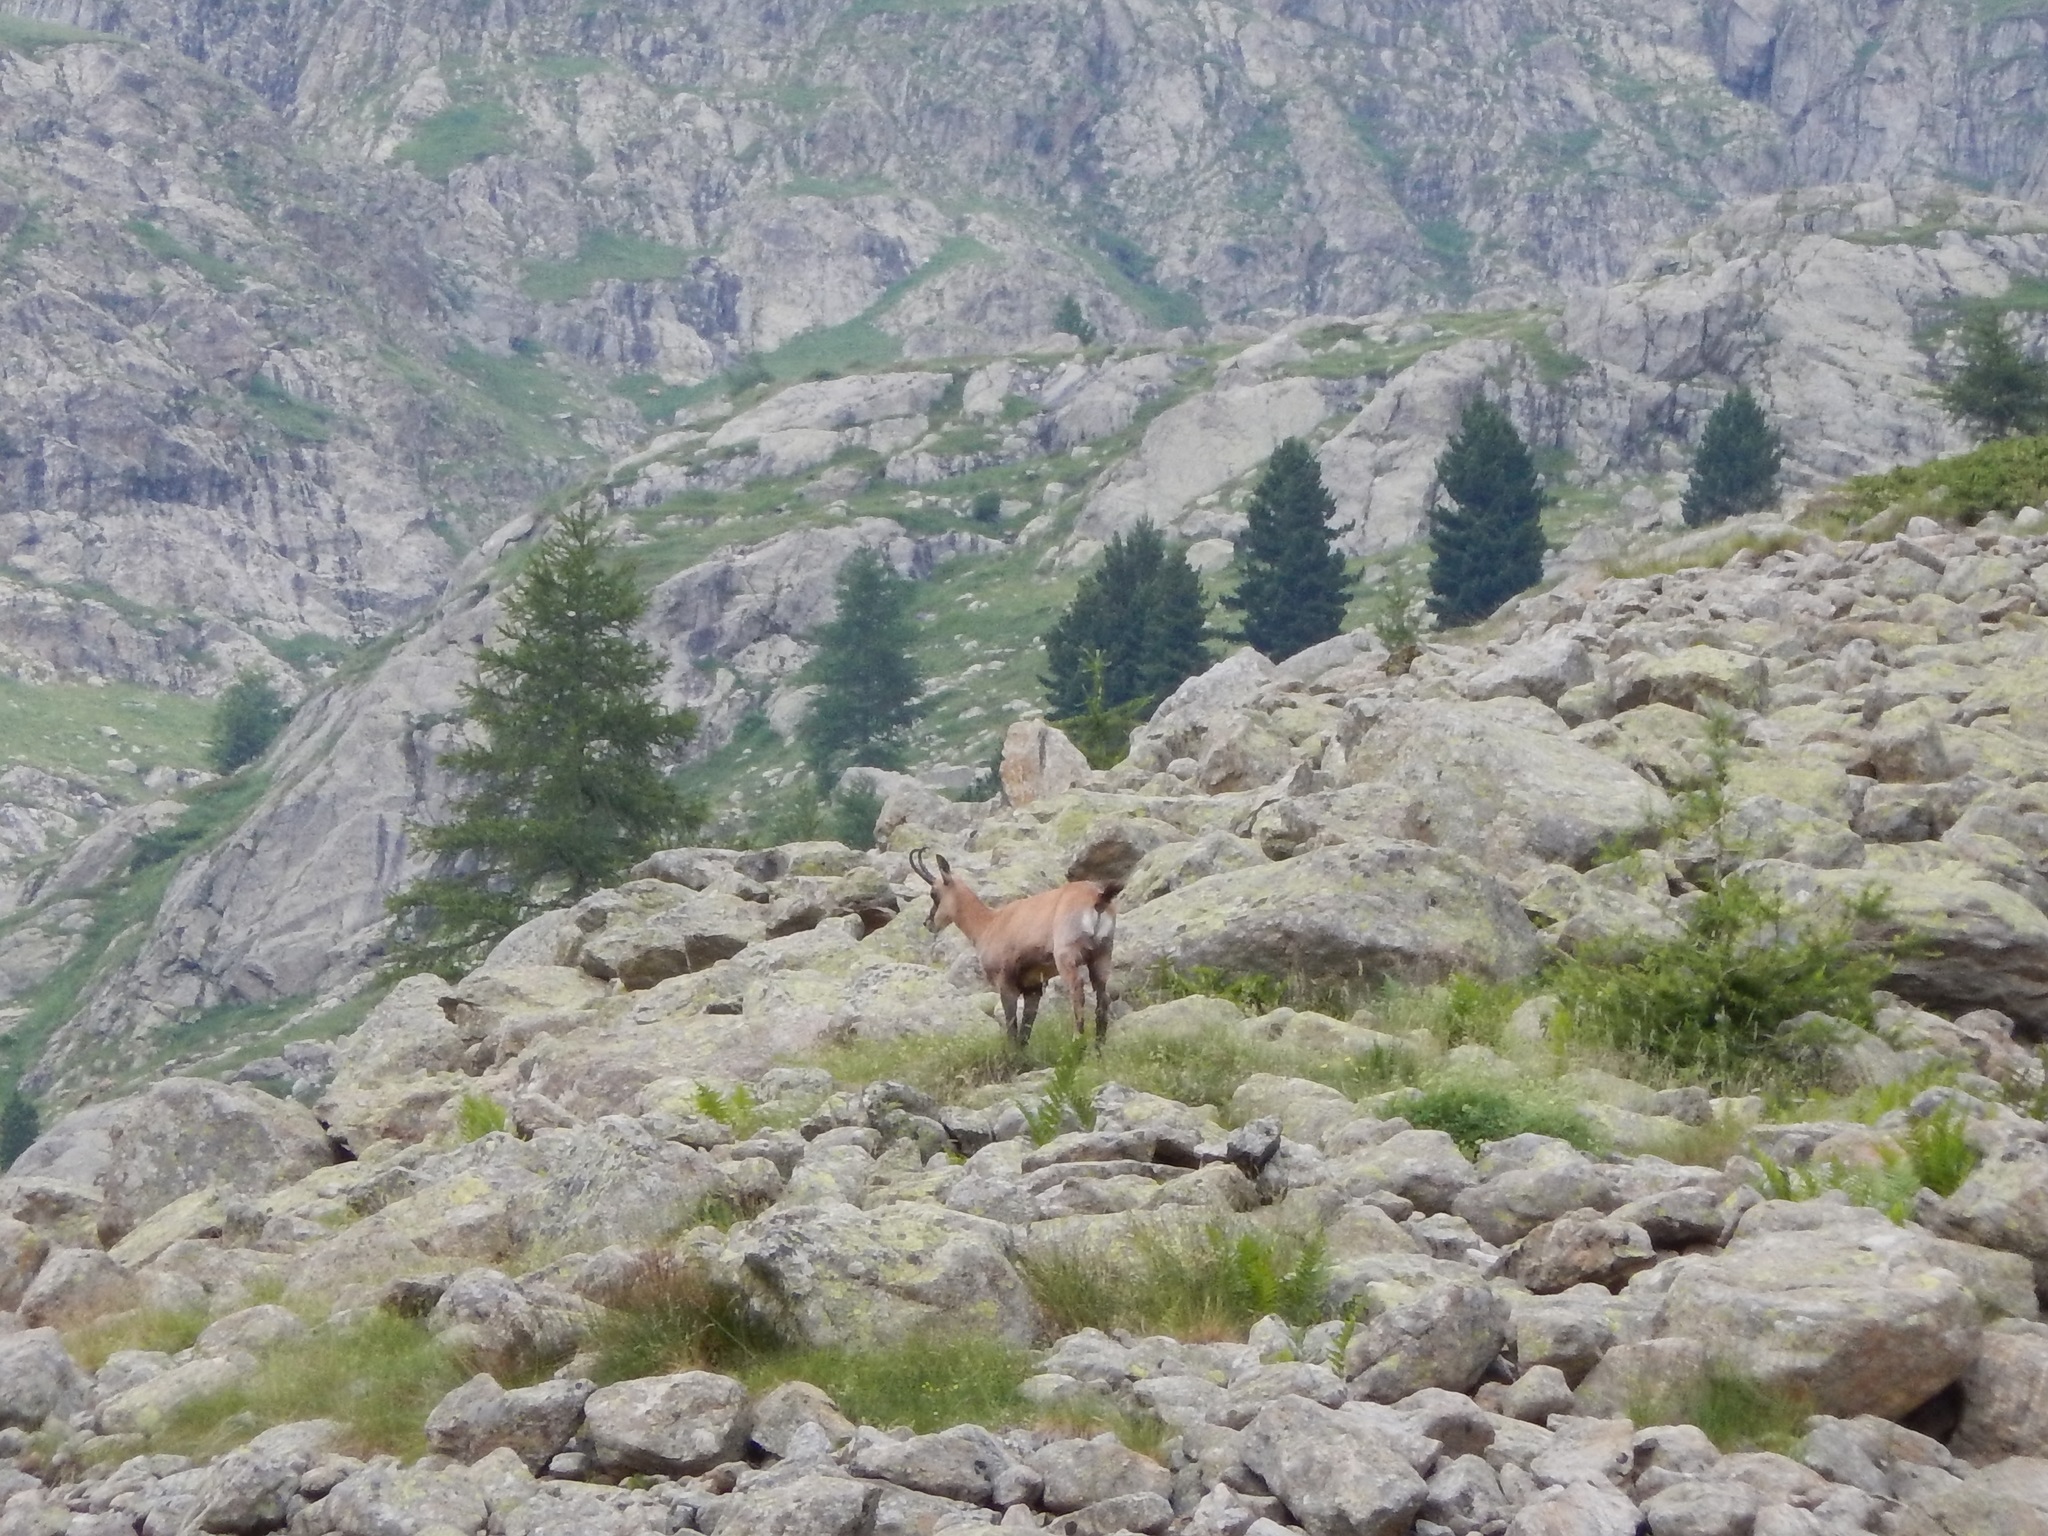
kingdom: Animalia
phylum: Chordata
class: Mammalia
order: Artiodactyla
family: Bovidae
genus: Rupicapra
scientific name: Rupicapra rupicapra
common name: Chamois
